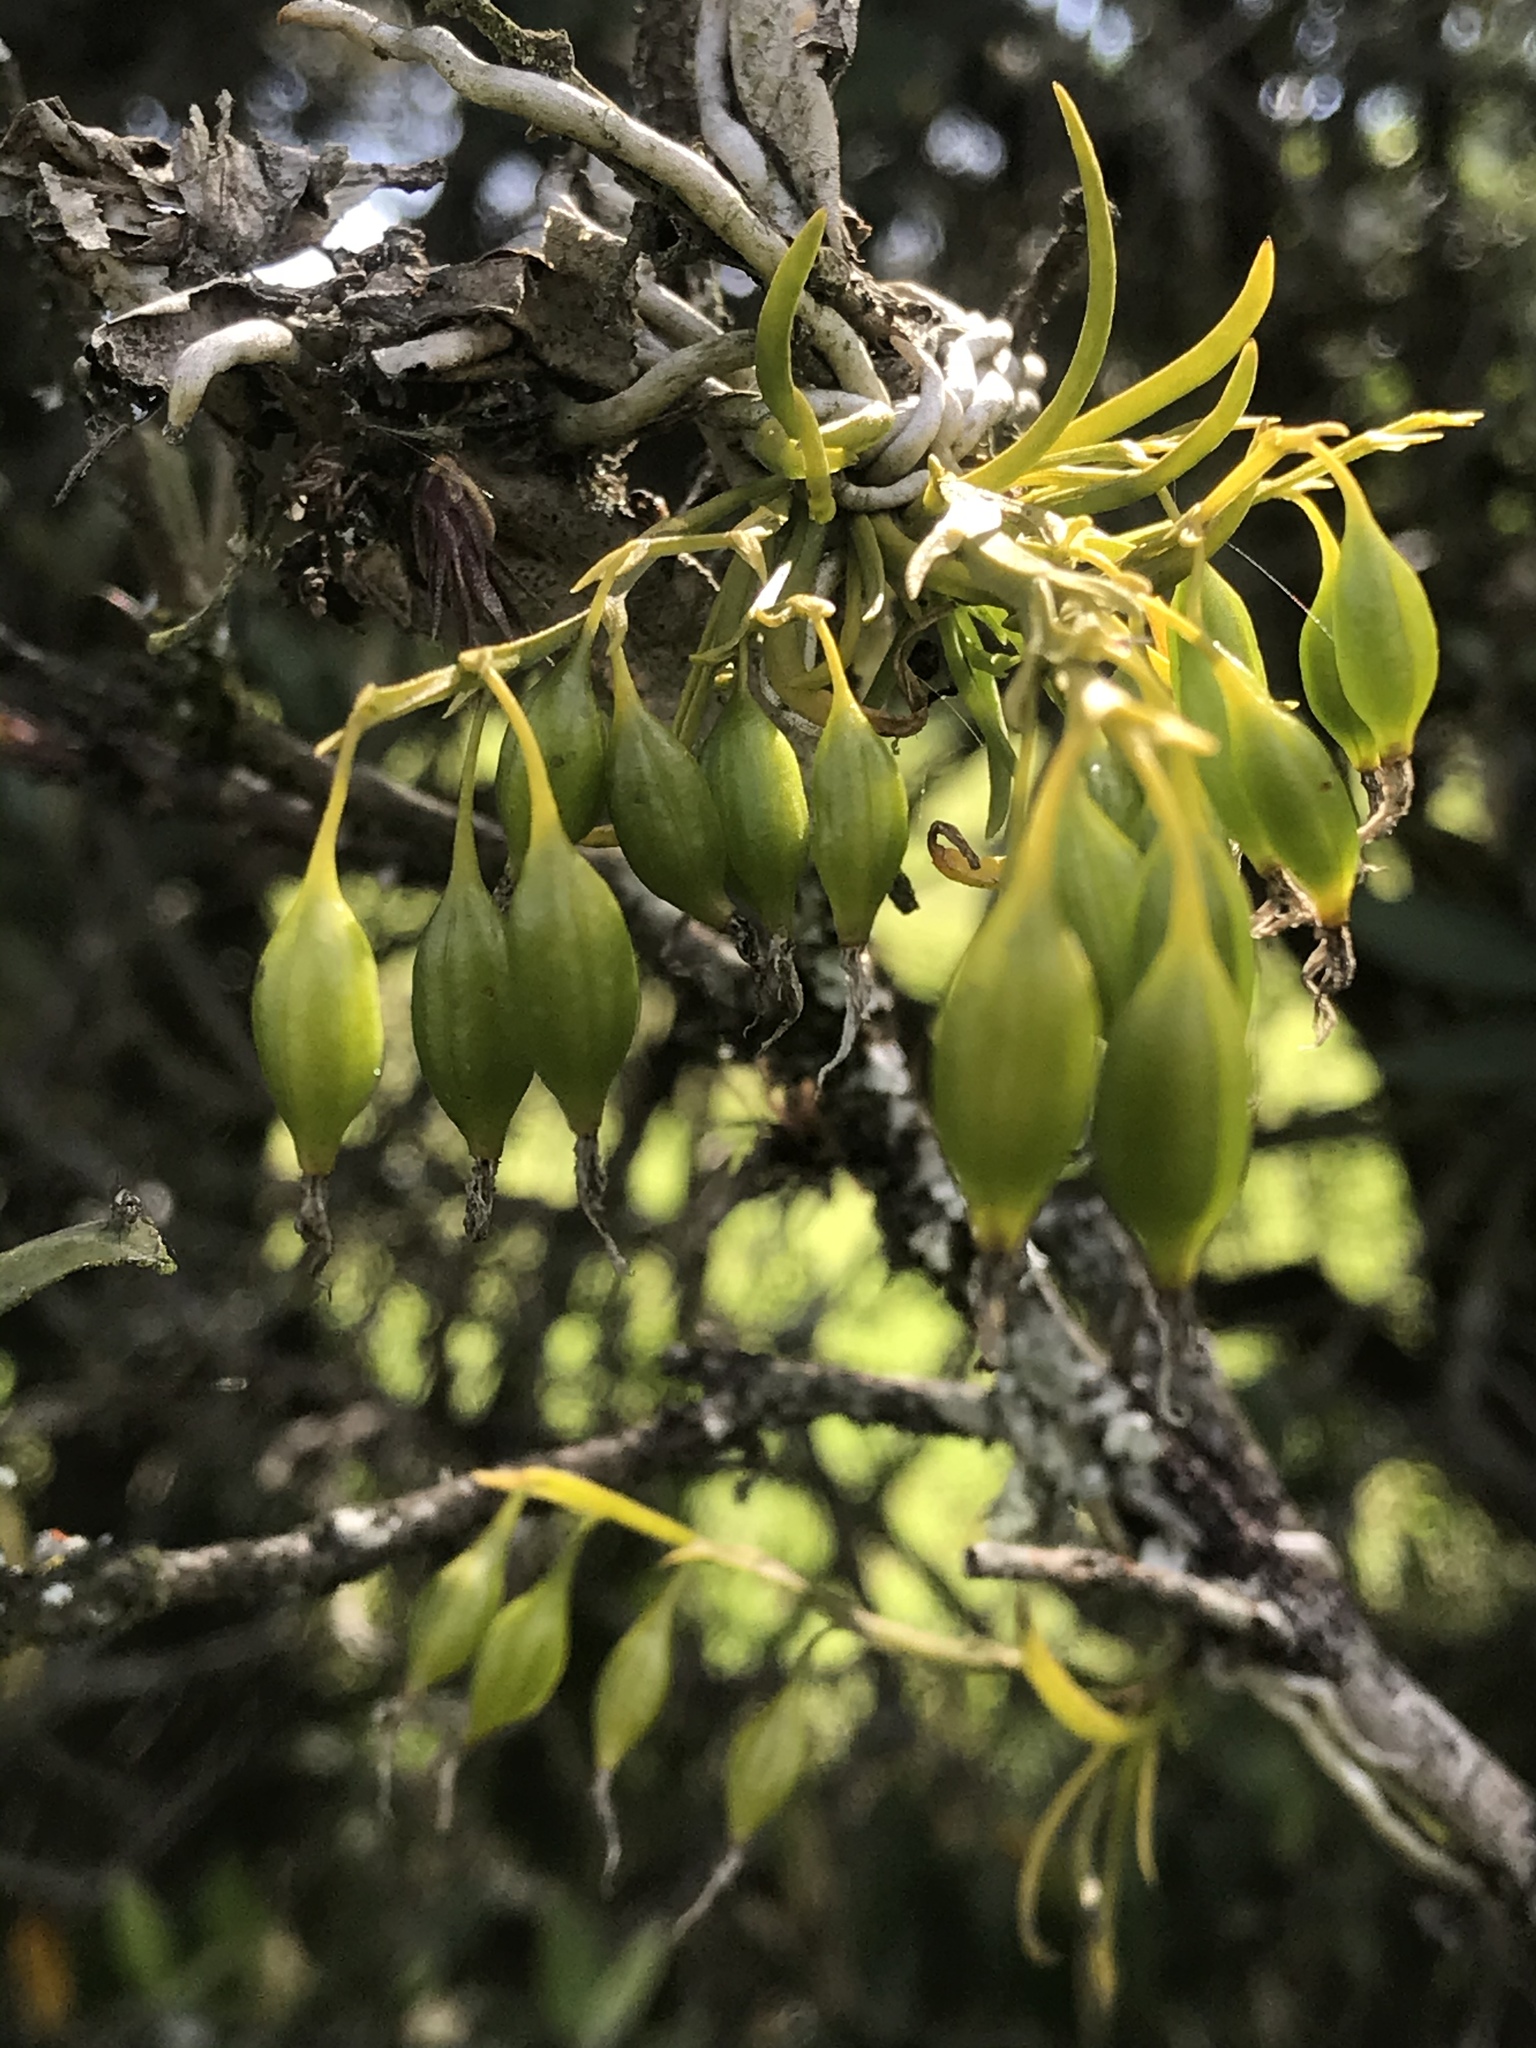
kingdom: Plantae
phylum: Tracheophyta
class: Liliopsida
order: Asparagales
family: Orchidaceae
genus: Hofmeisterella
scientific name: Hofmeisterella eumicroscopica
